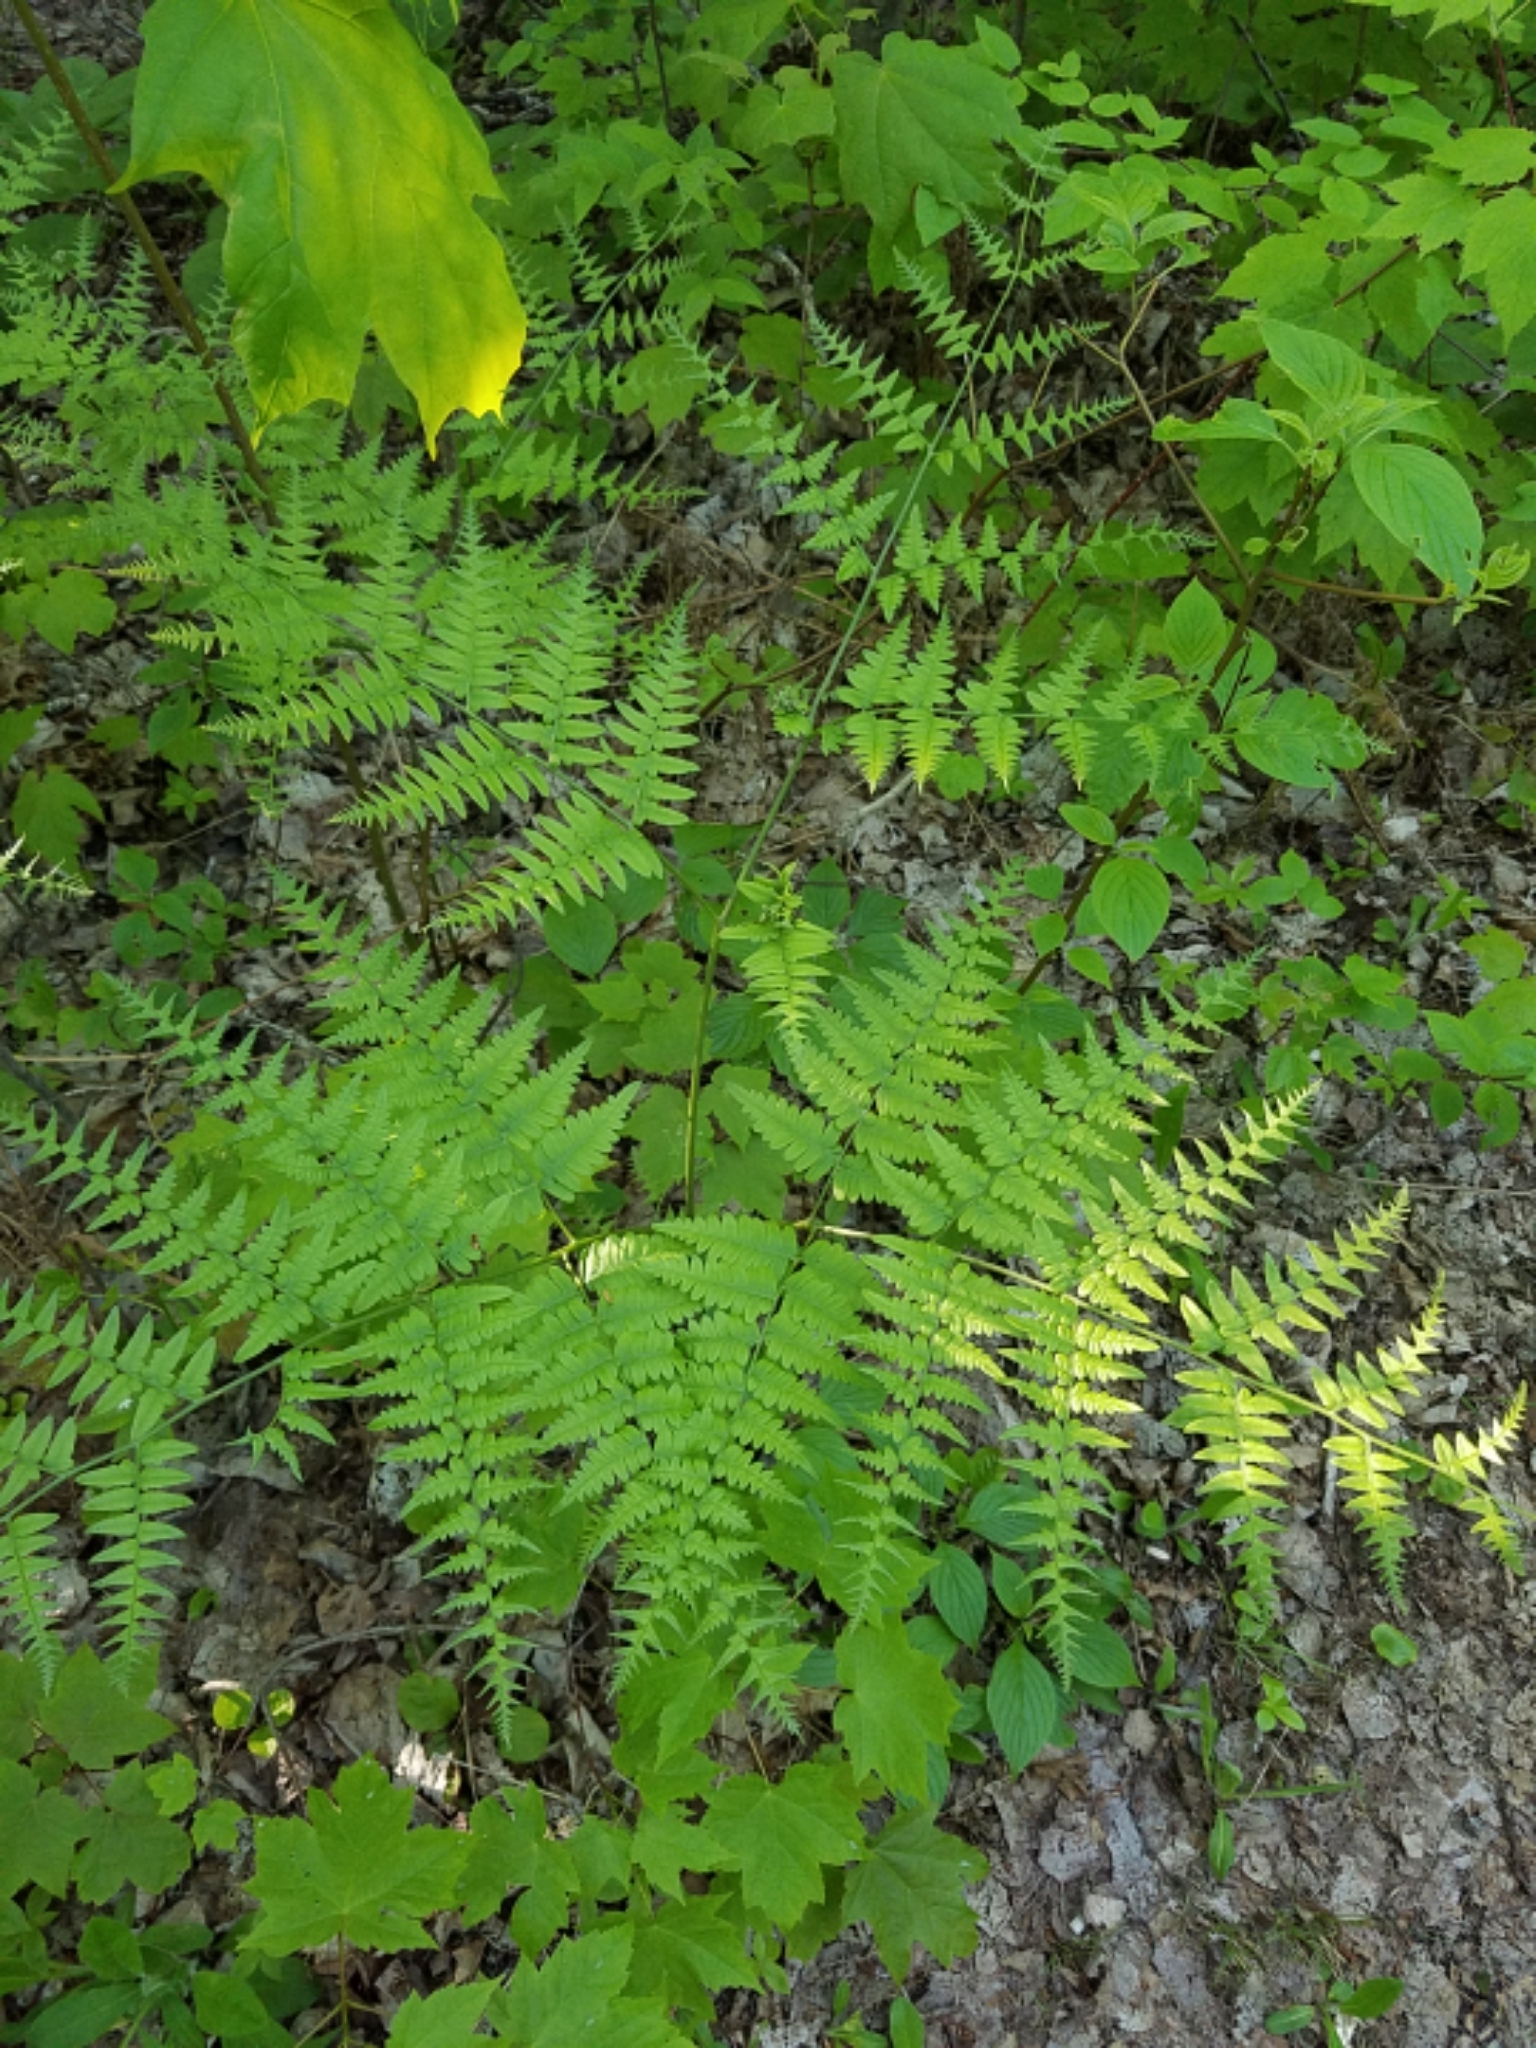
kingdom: Plantae
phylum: Tracheophyta
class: Polypodiopsida
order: Polypodiales
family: Dennstaedtiaceae
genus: Pteridium
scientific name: Pteridium aquilinum
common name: Bracken
